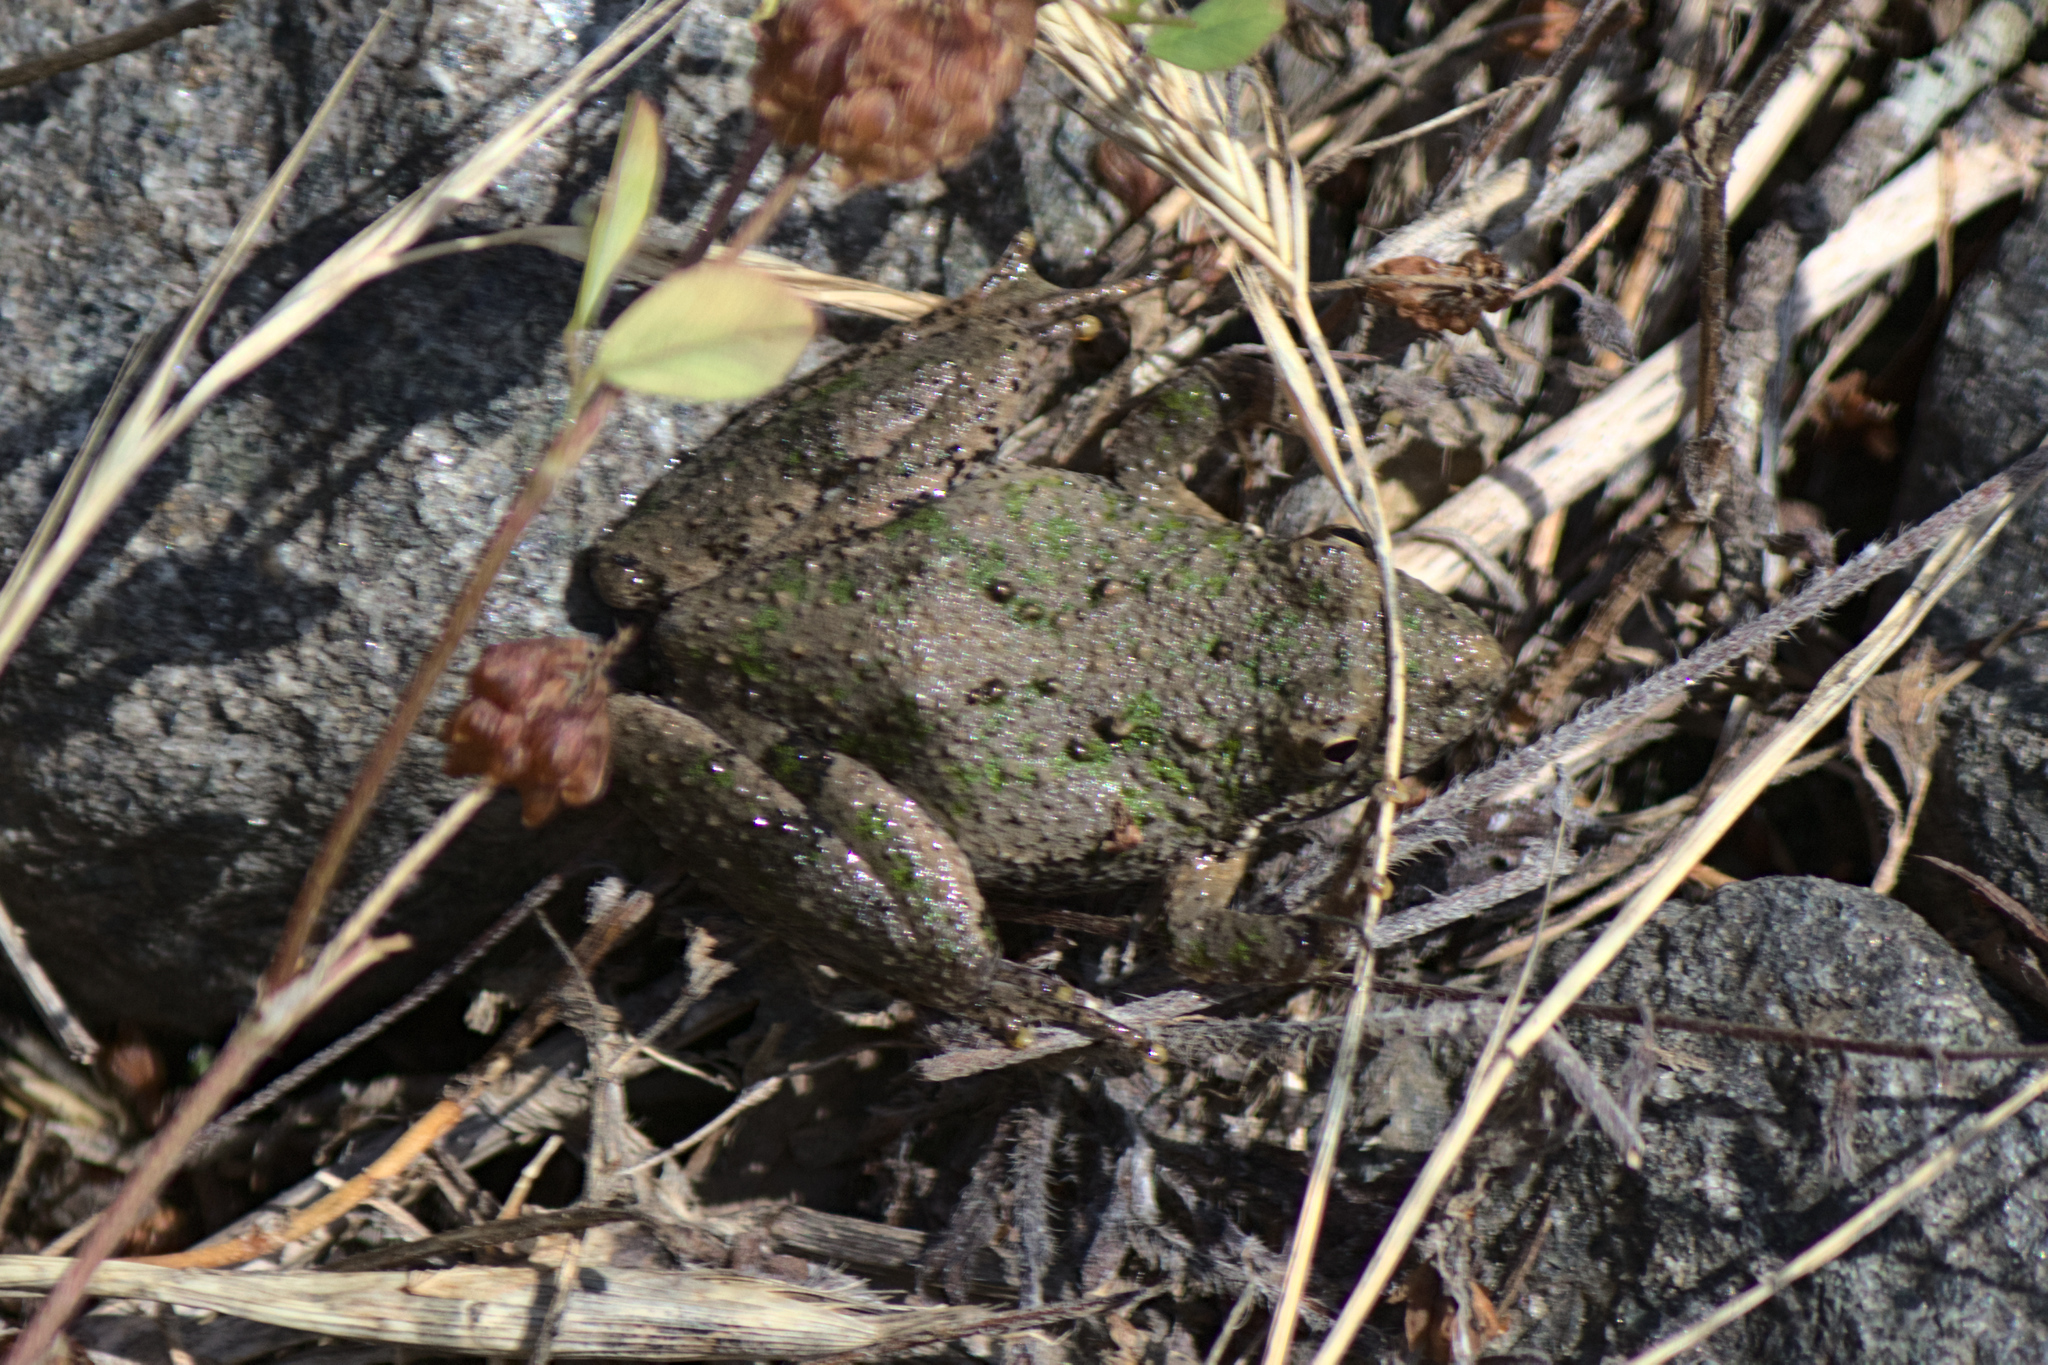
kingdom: Animalia
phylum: Chordata
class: Amphibia
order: Anura
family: Hylidae
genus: Acris
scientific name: Acris crepitans
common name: Northern cricket frog
